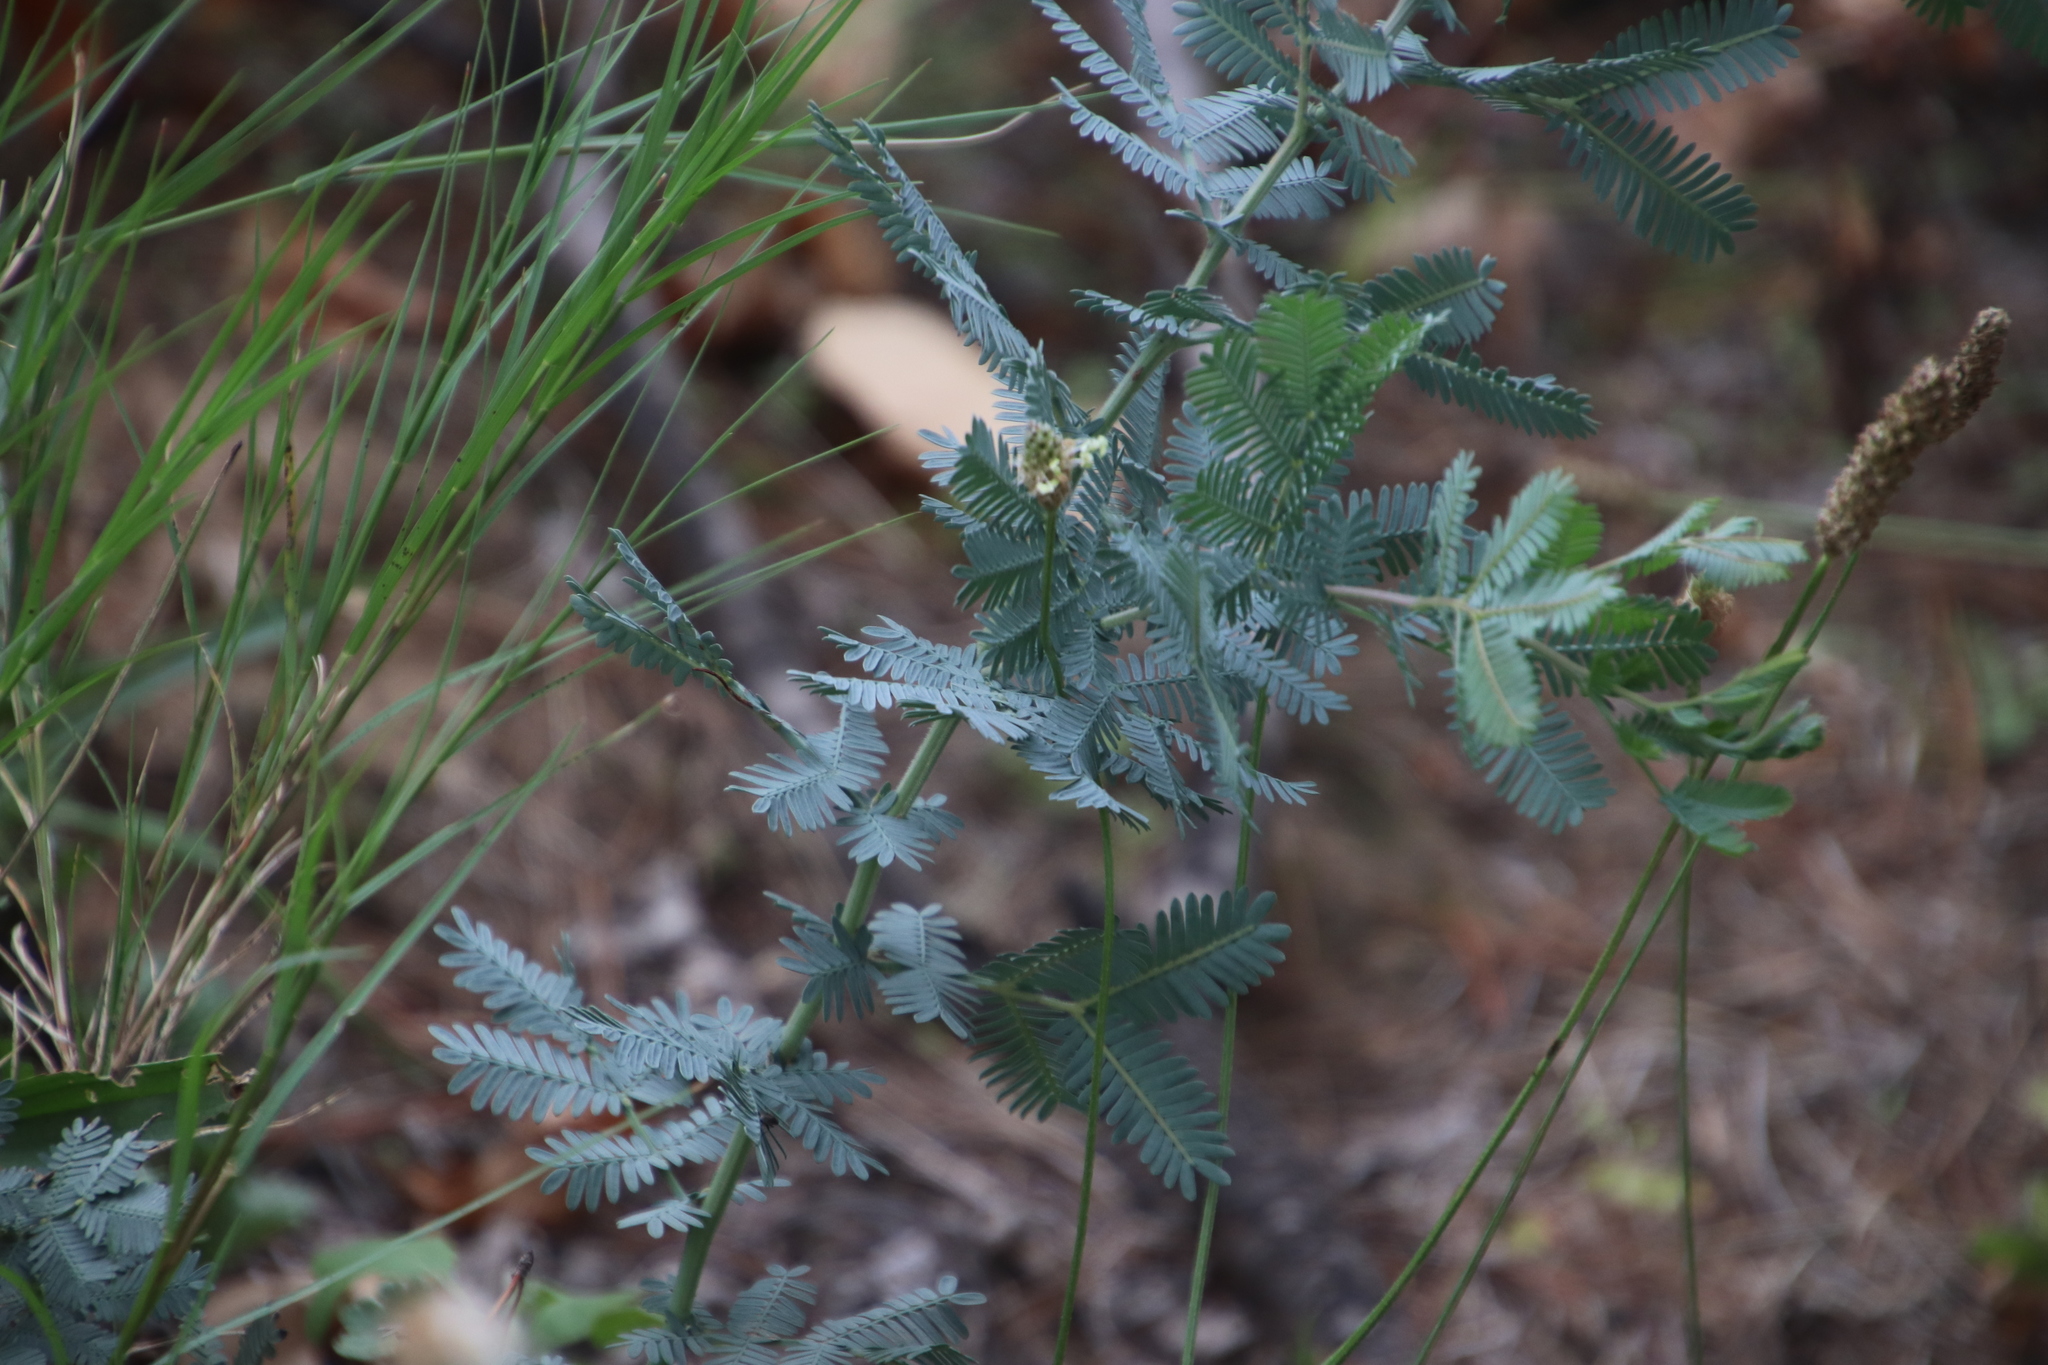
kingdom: Plantae
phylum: Tracheophyta
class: Magnoliopsida
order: Fabales
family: Fabaceae
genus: Acacia
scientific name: Acacia baileyana
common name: Cootamundra wattle
